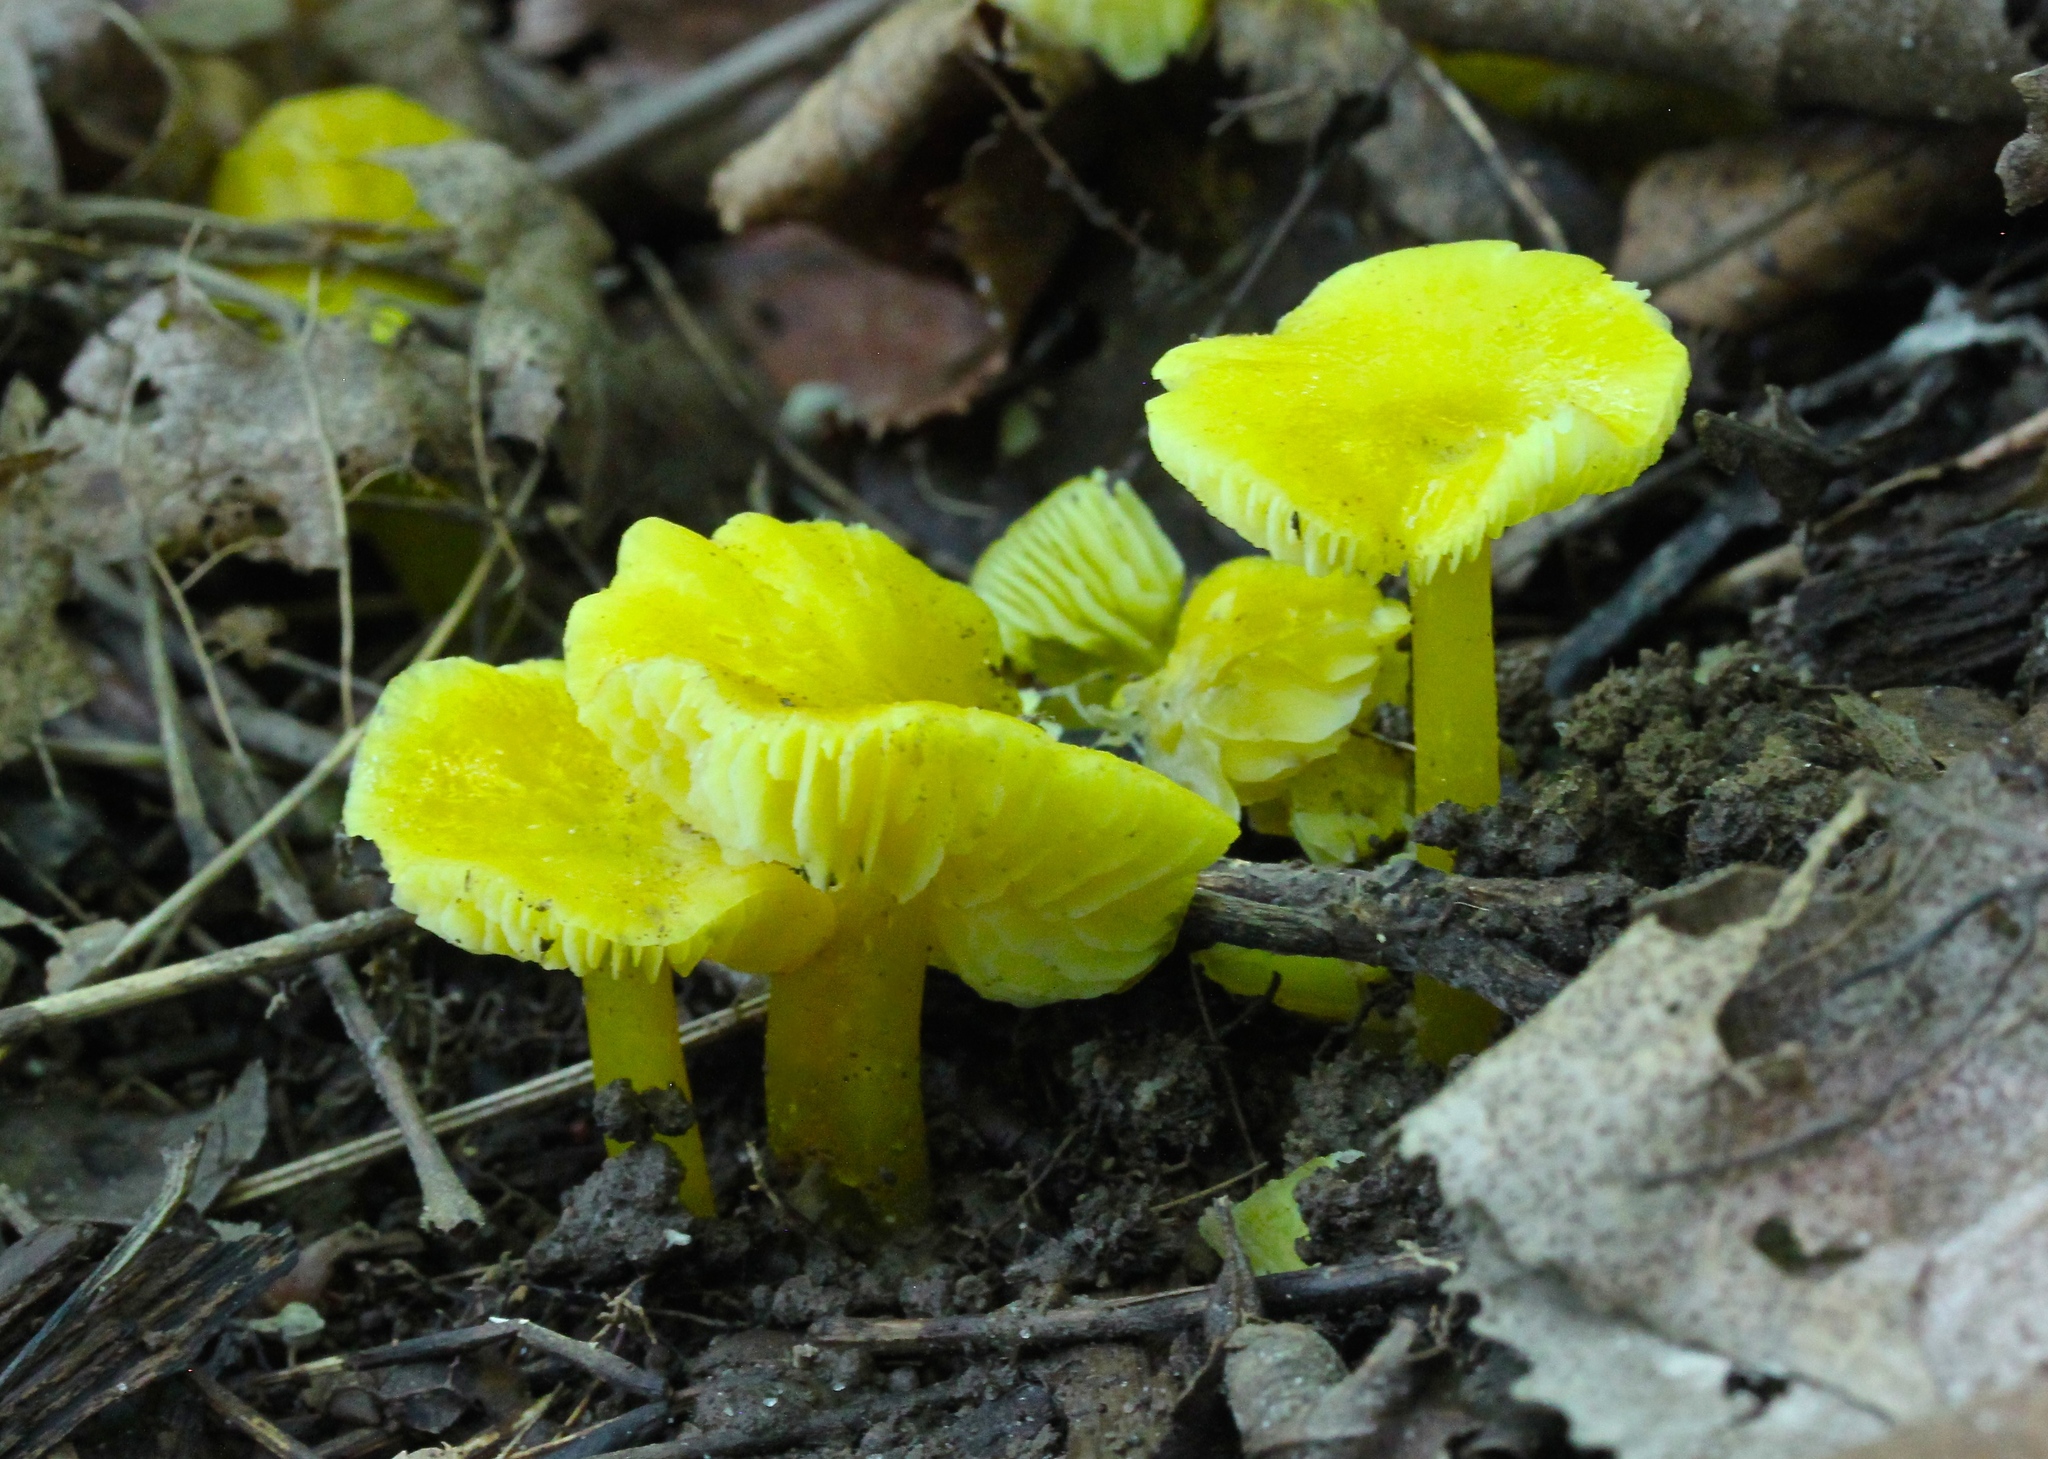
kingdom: Fungi
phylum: Basidiomycota
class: Agaricomycetes
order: Agaricales
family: Hygrophoraceae
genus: Hygrocybe
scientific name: Hygrocybe flavescens
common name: Golden waxy cap
